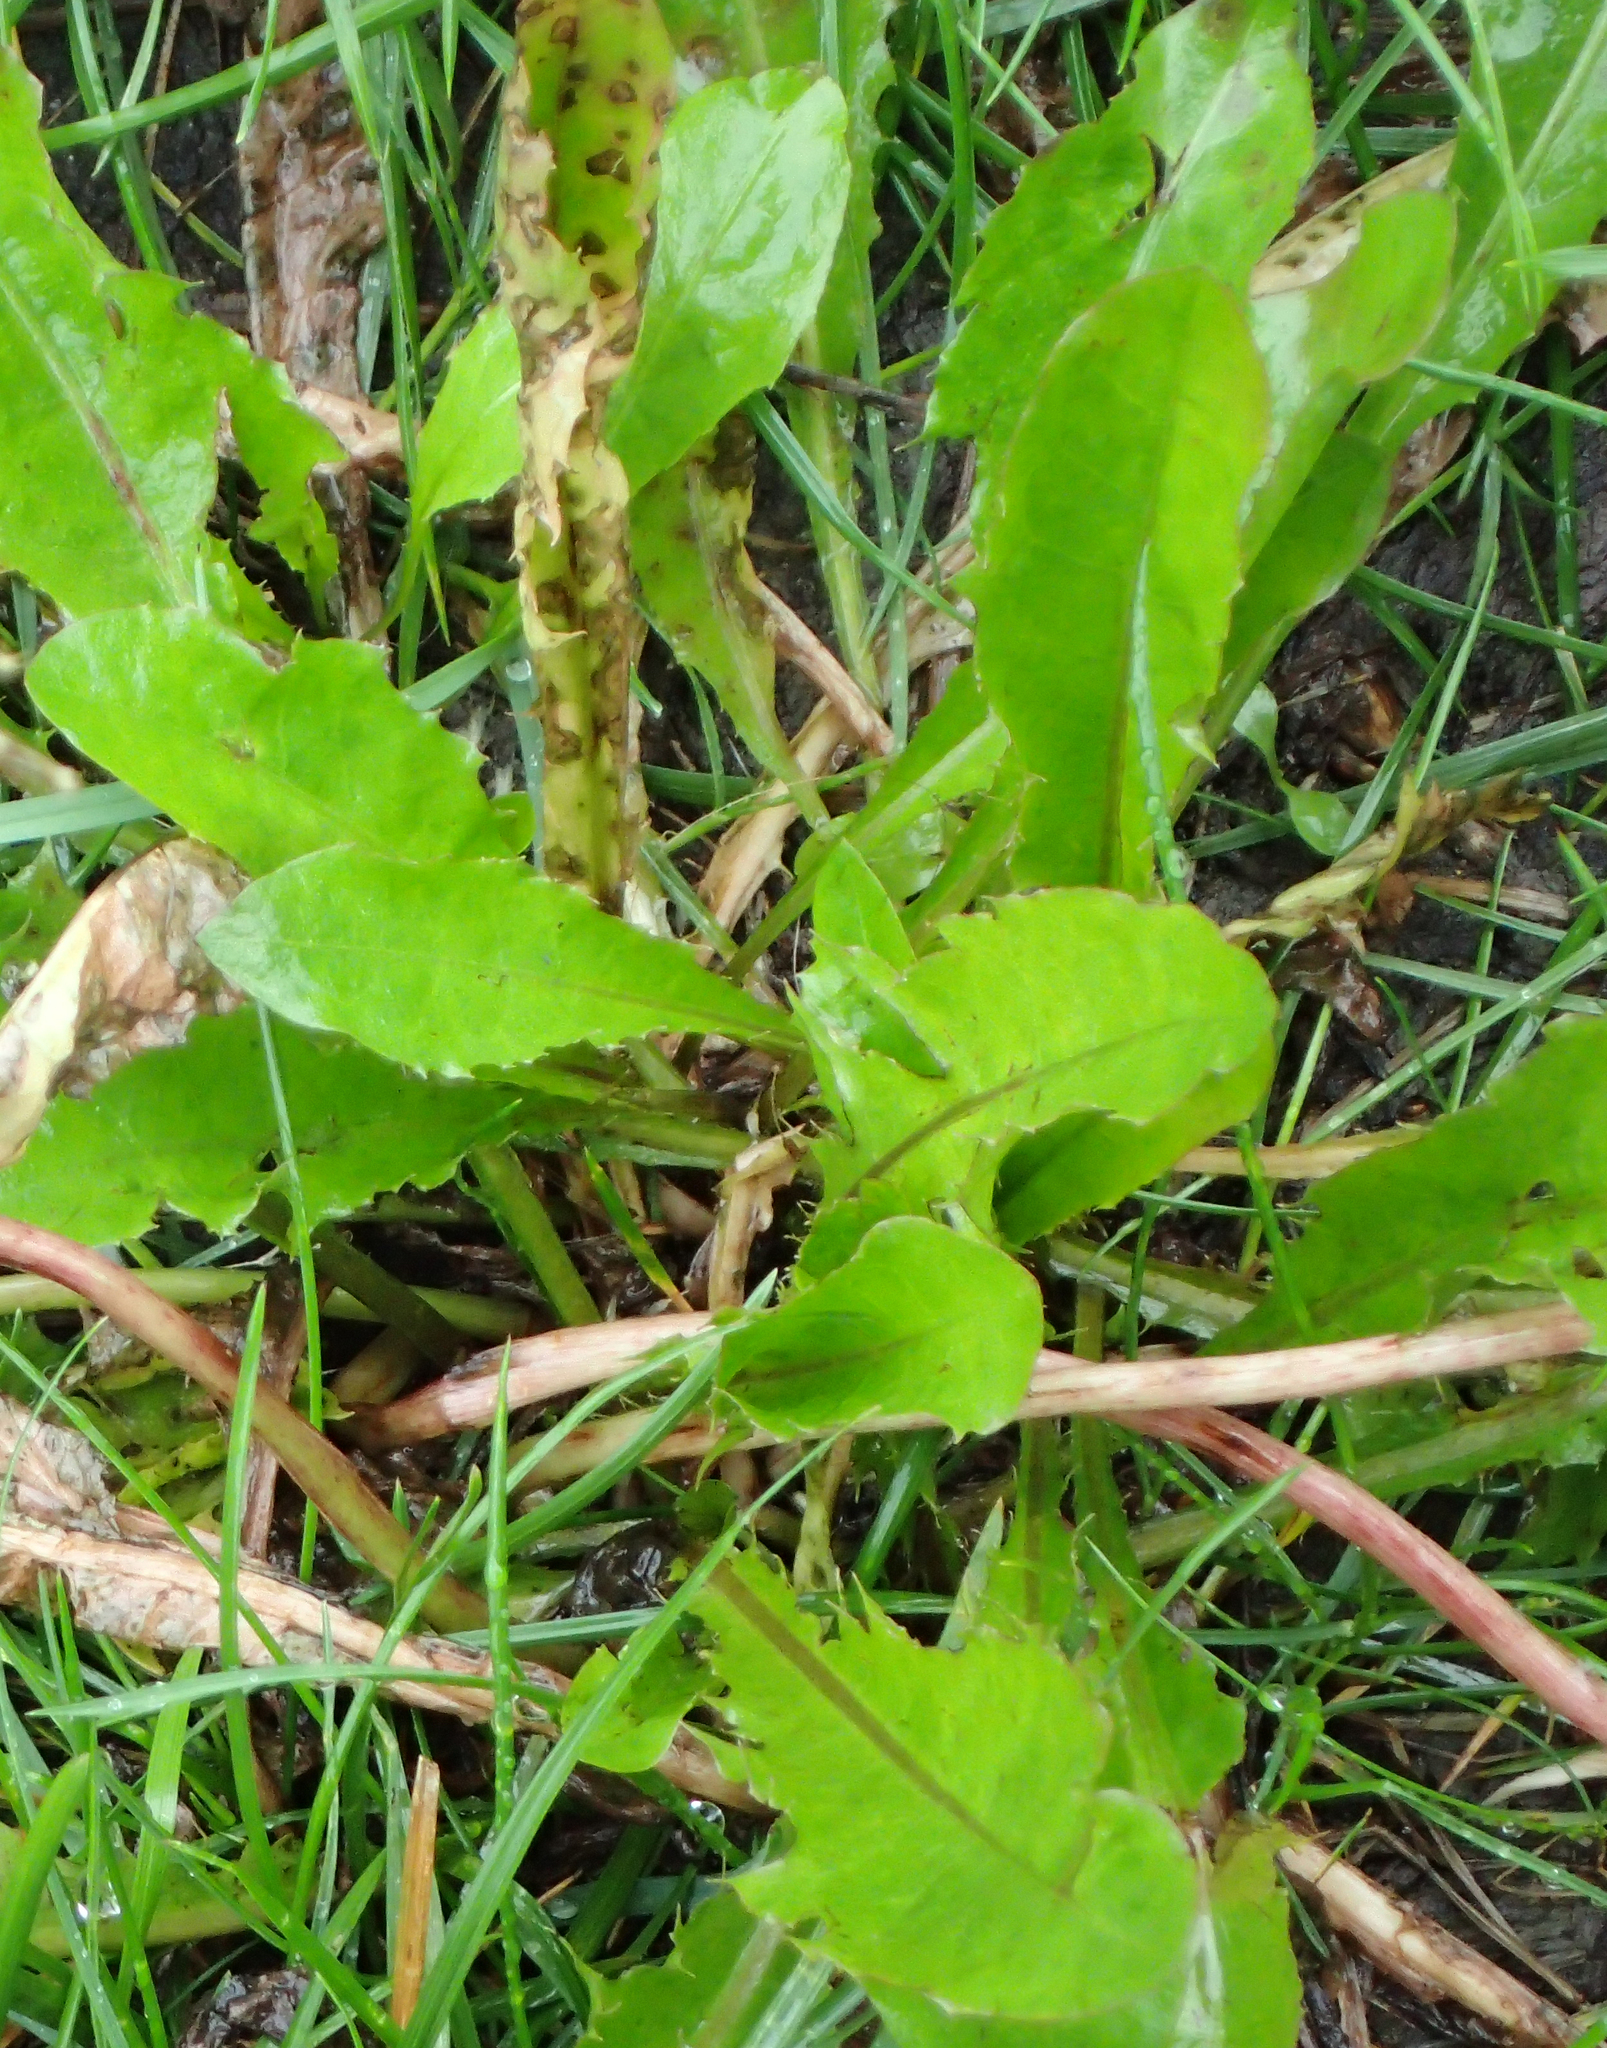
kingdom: Plantae
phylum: Tracheophyta
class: Magnoliopsida
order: Asterales
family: Asteraceae
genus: Taraxacum
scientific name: Taraxacum officinale
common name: Common dandelion
